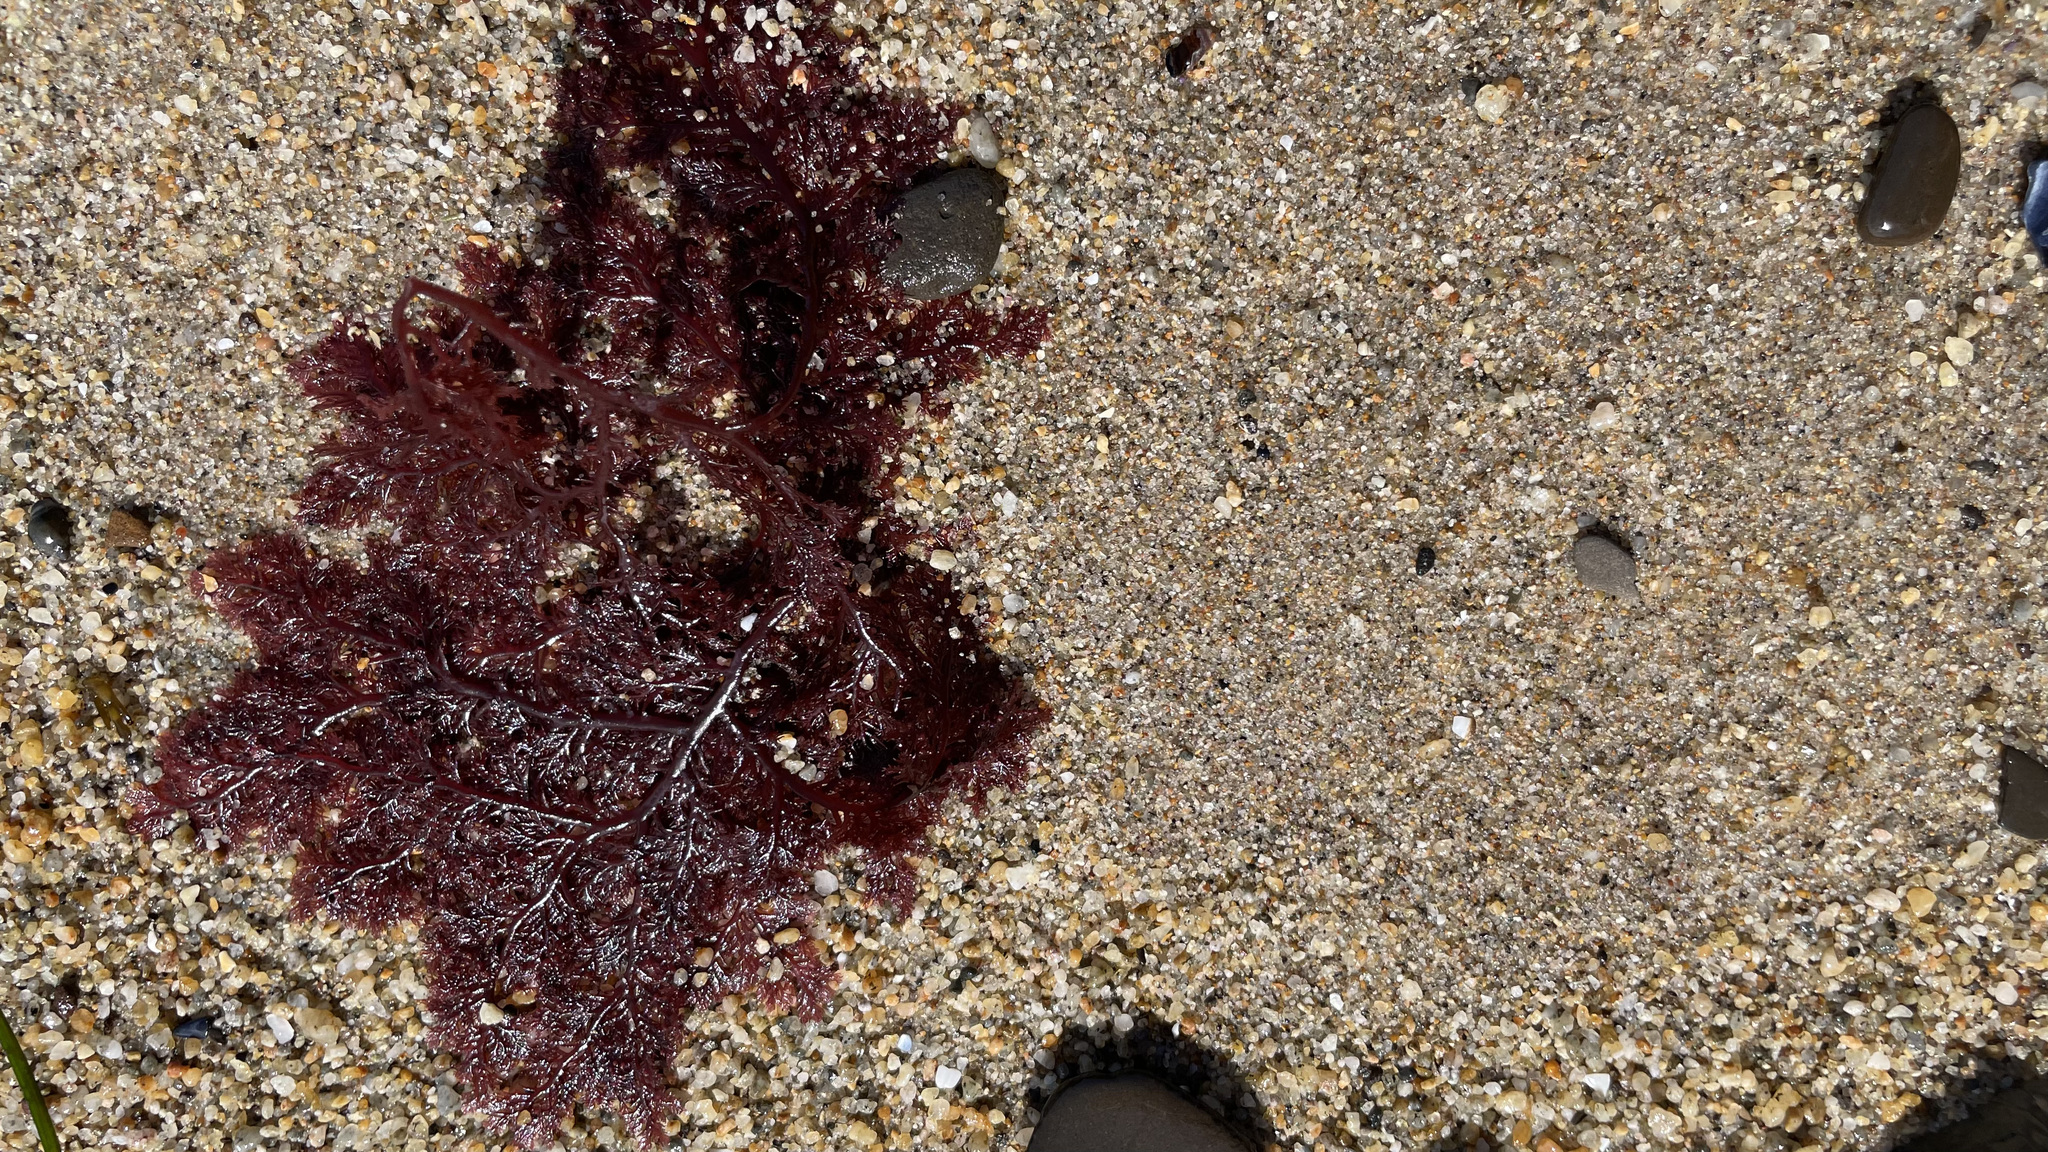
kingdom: Plantae
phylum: Rhodophyta
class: Florideophyceae
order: Plocamiales
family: Plocamiaceae
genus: Plocamium
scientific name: Plocamium cartilagineum
